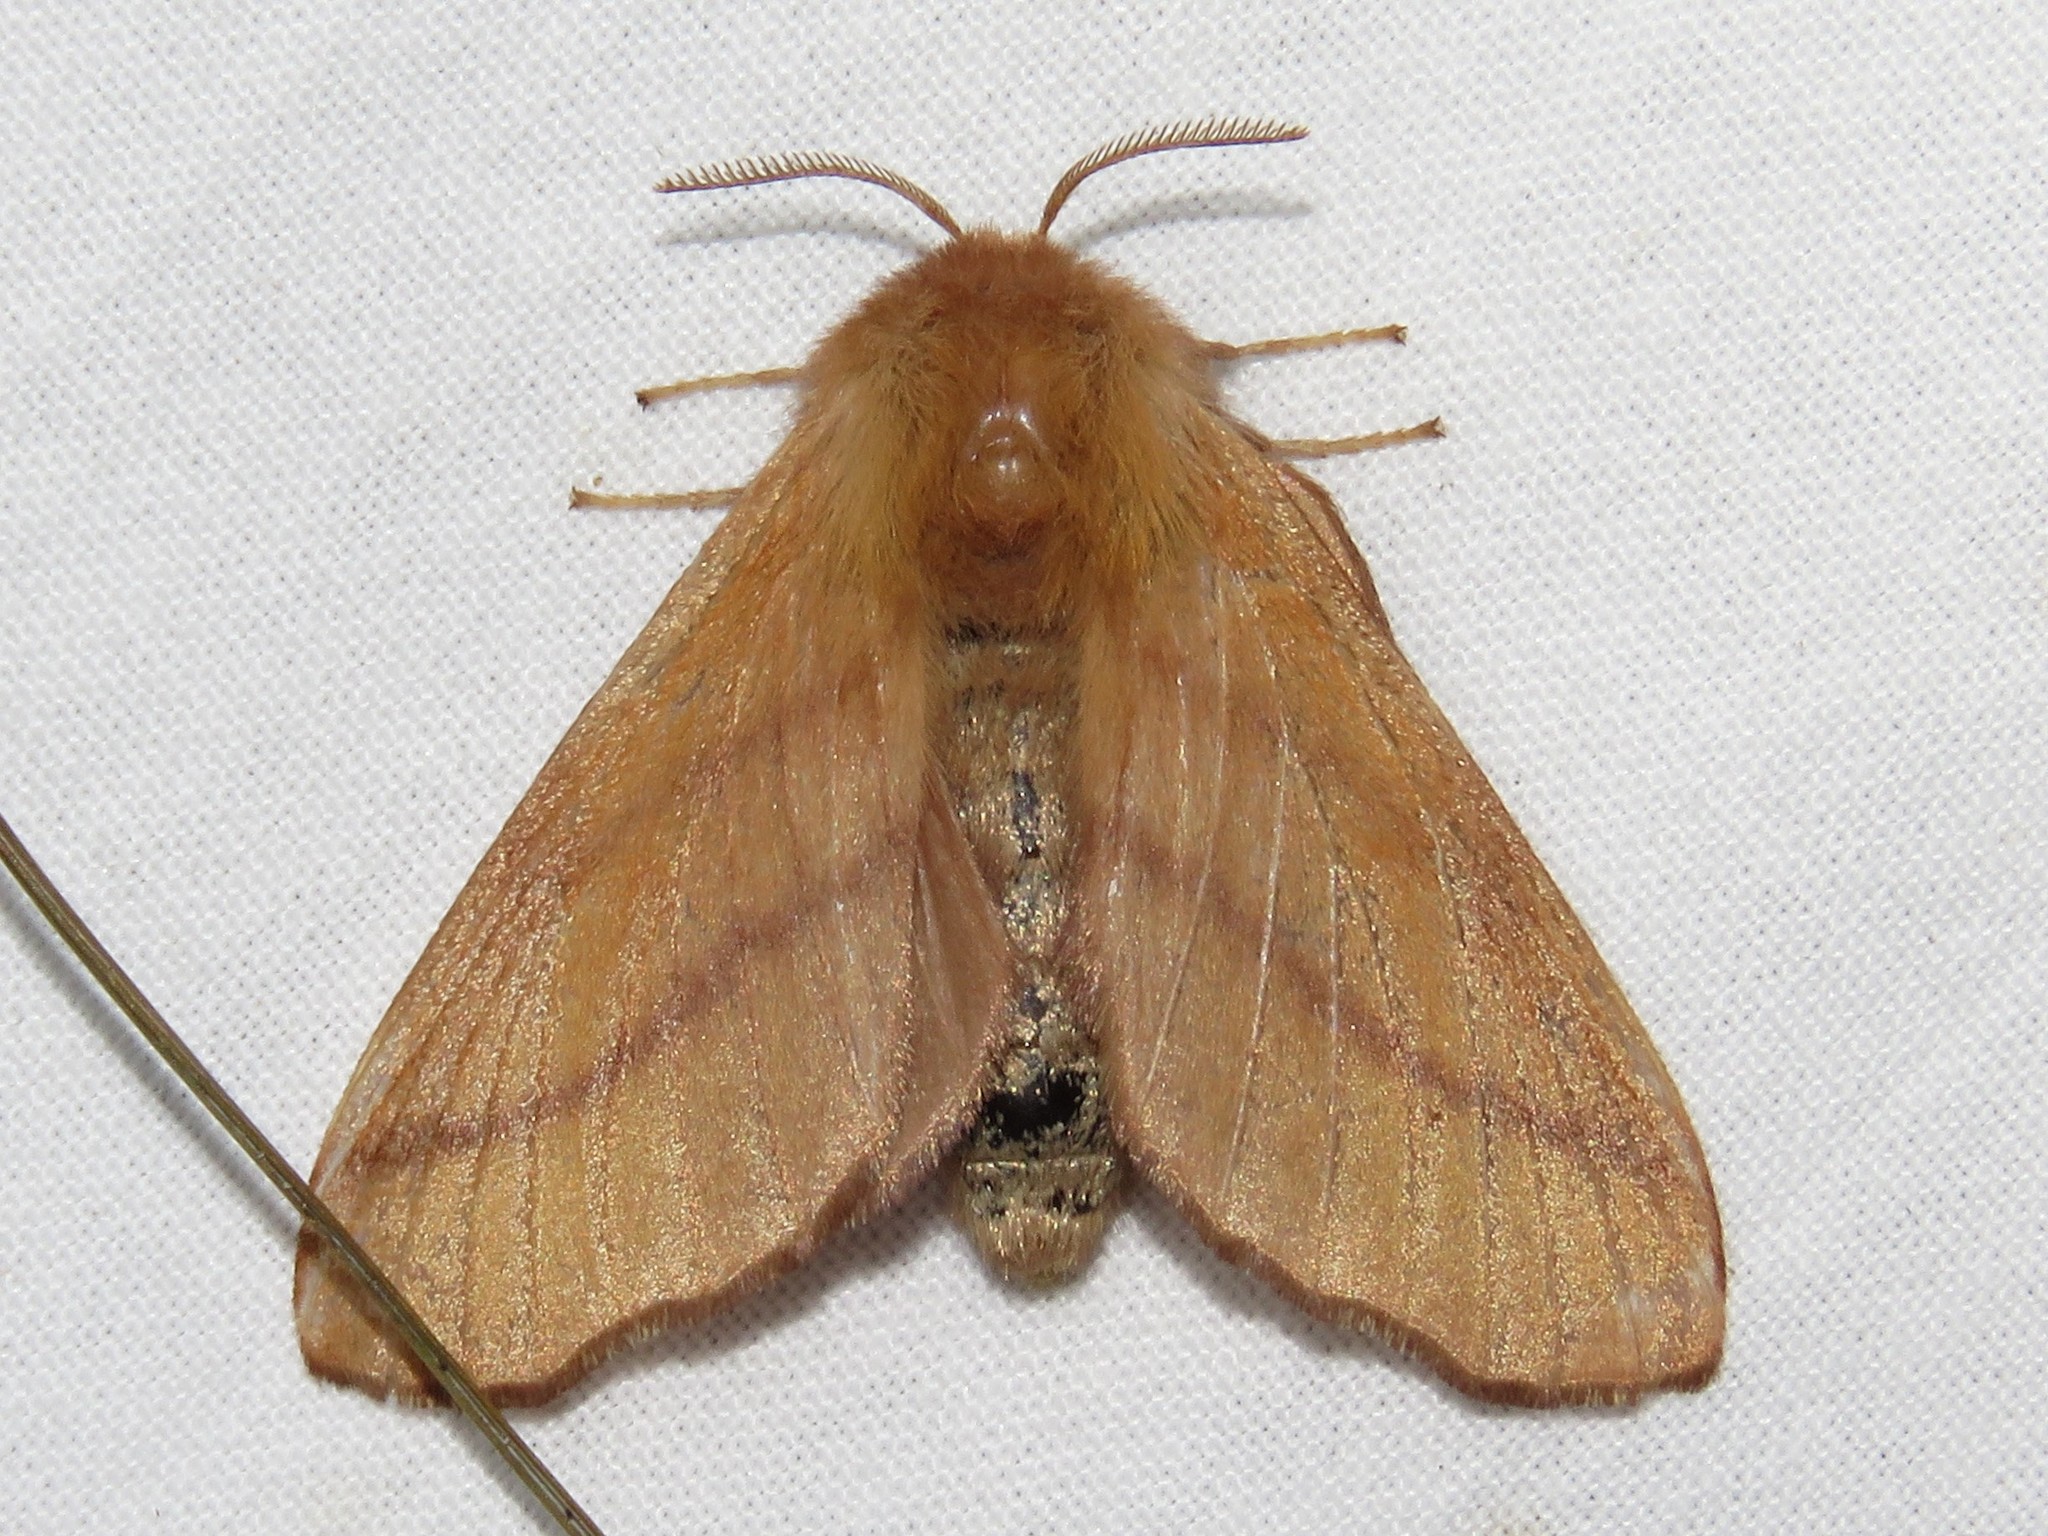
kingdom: Animalia
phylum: Arthropoda
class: Insecta
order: Lepidoptera
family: Lasiocampidae
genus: Malacosoma
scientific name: Malacosoma disstria
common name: Forest tent caterpillar
